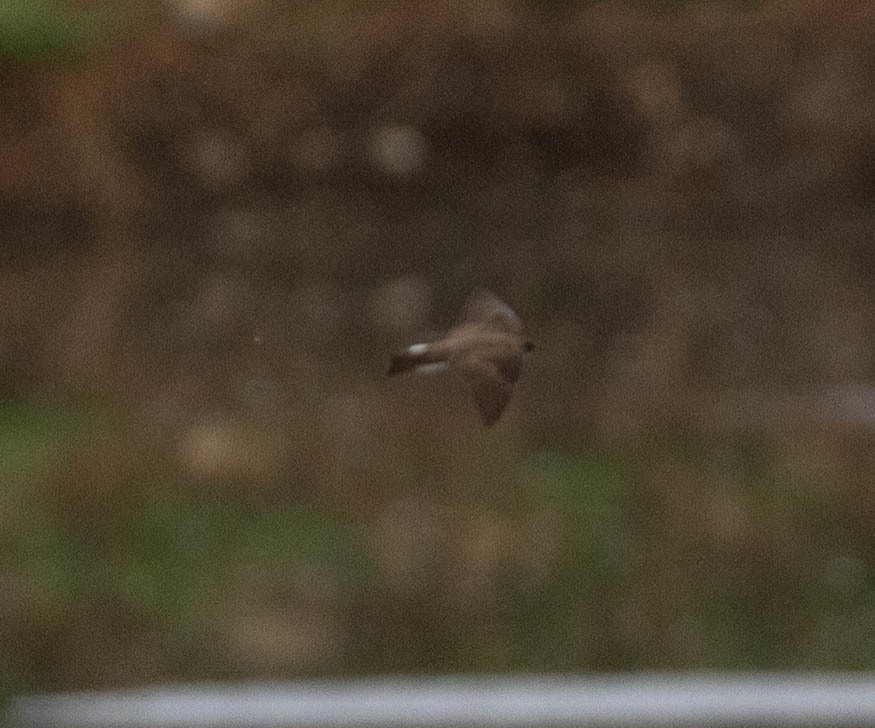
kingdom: Animalia
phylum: Chordata
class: Aves
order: Passeriformes
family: Hirundinidae
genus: Stelgidopteryx
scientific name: Stelgidopteryx serripennis
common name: Northern rough-winged swallow
